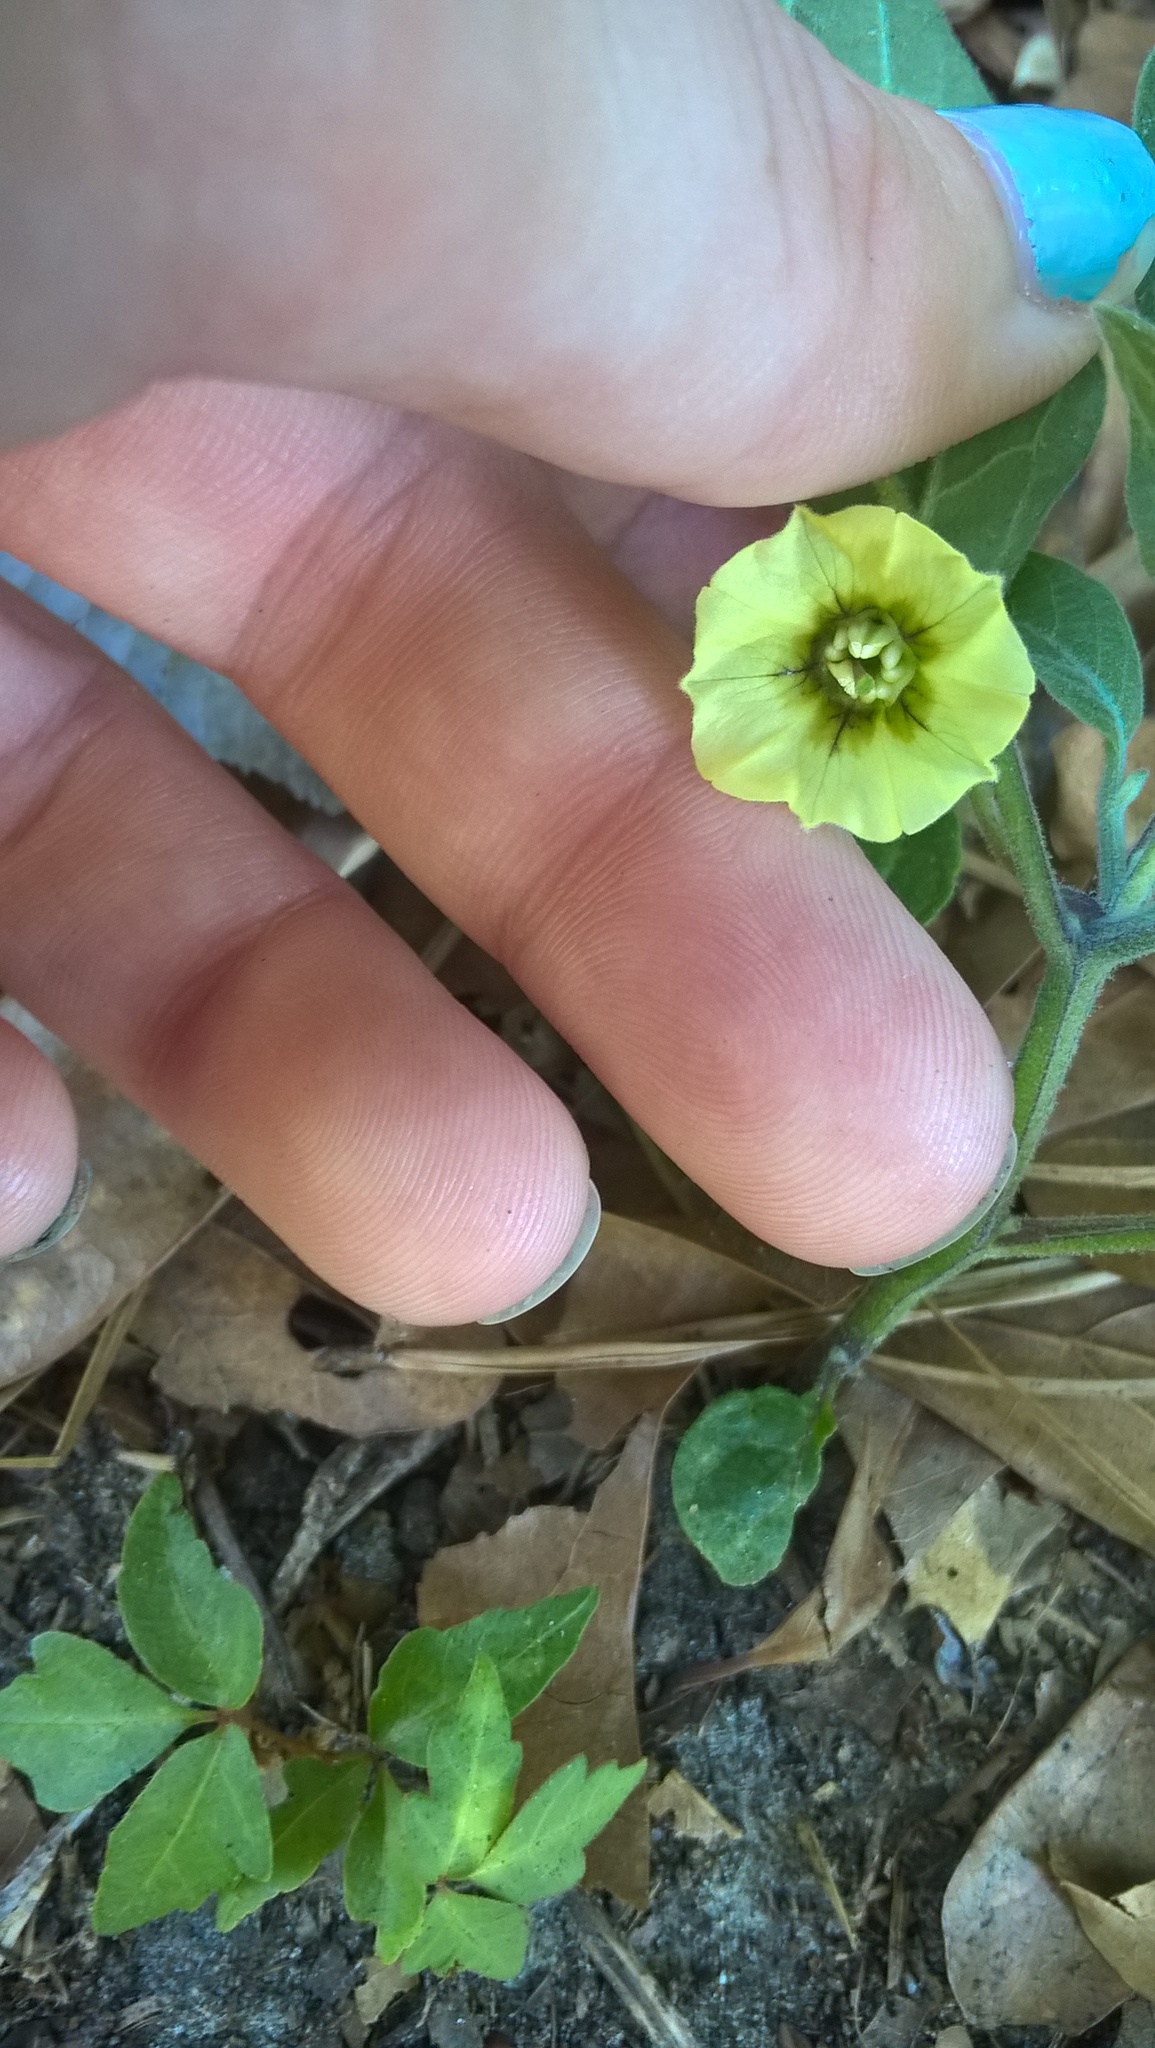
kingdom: Plantae
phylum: Tracheophyta
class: Magnoliopsida
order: Solanales
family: Solanaceae
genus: Physalis
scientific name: Physalis walteri
